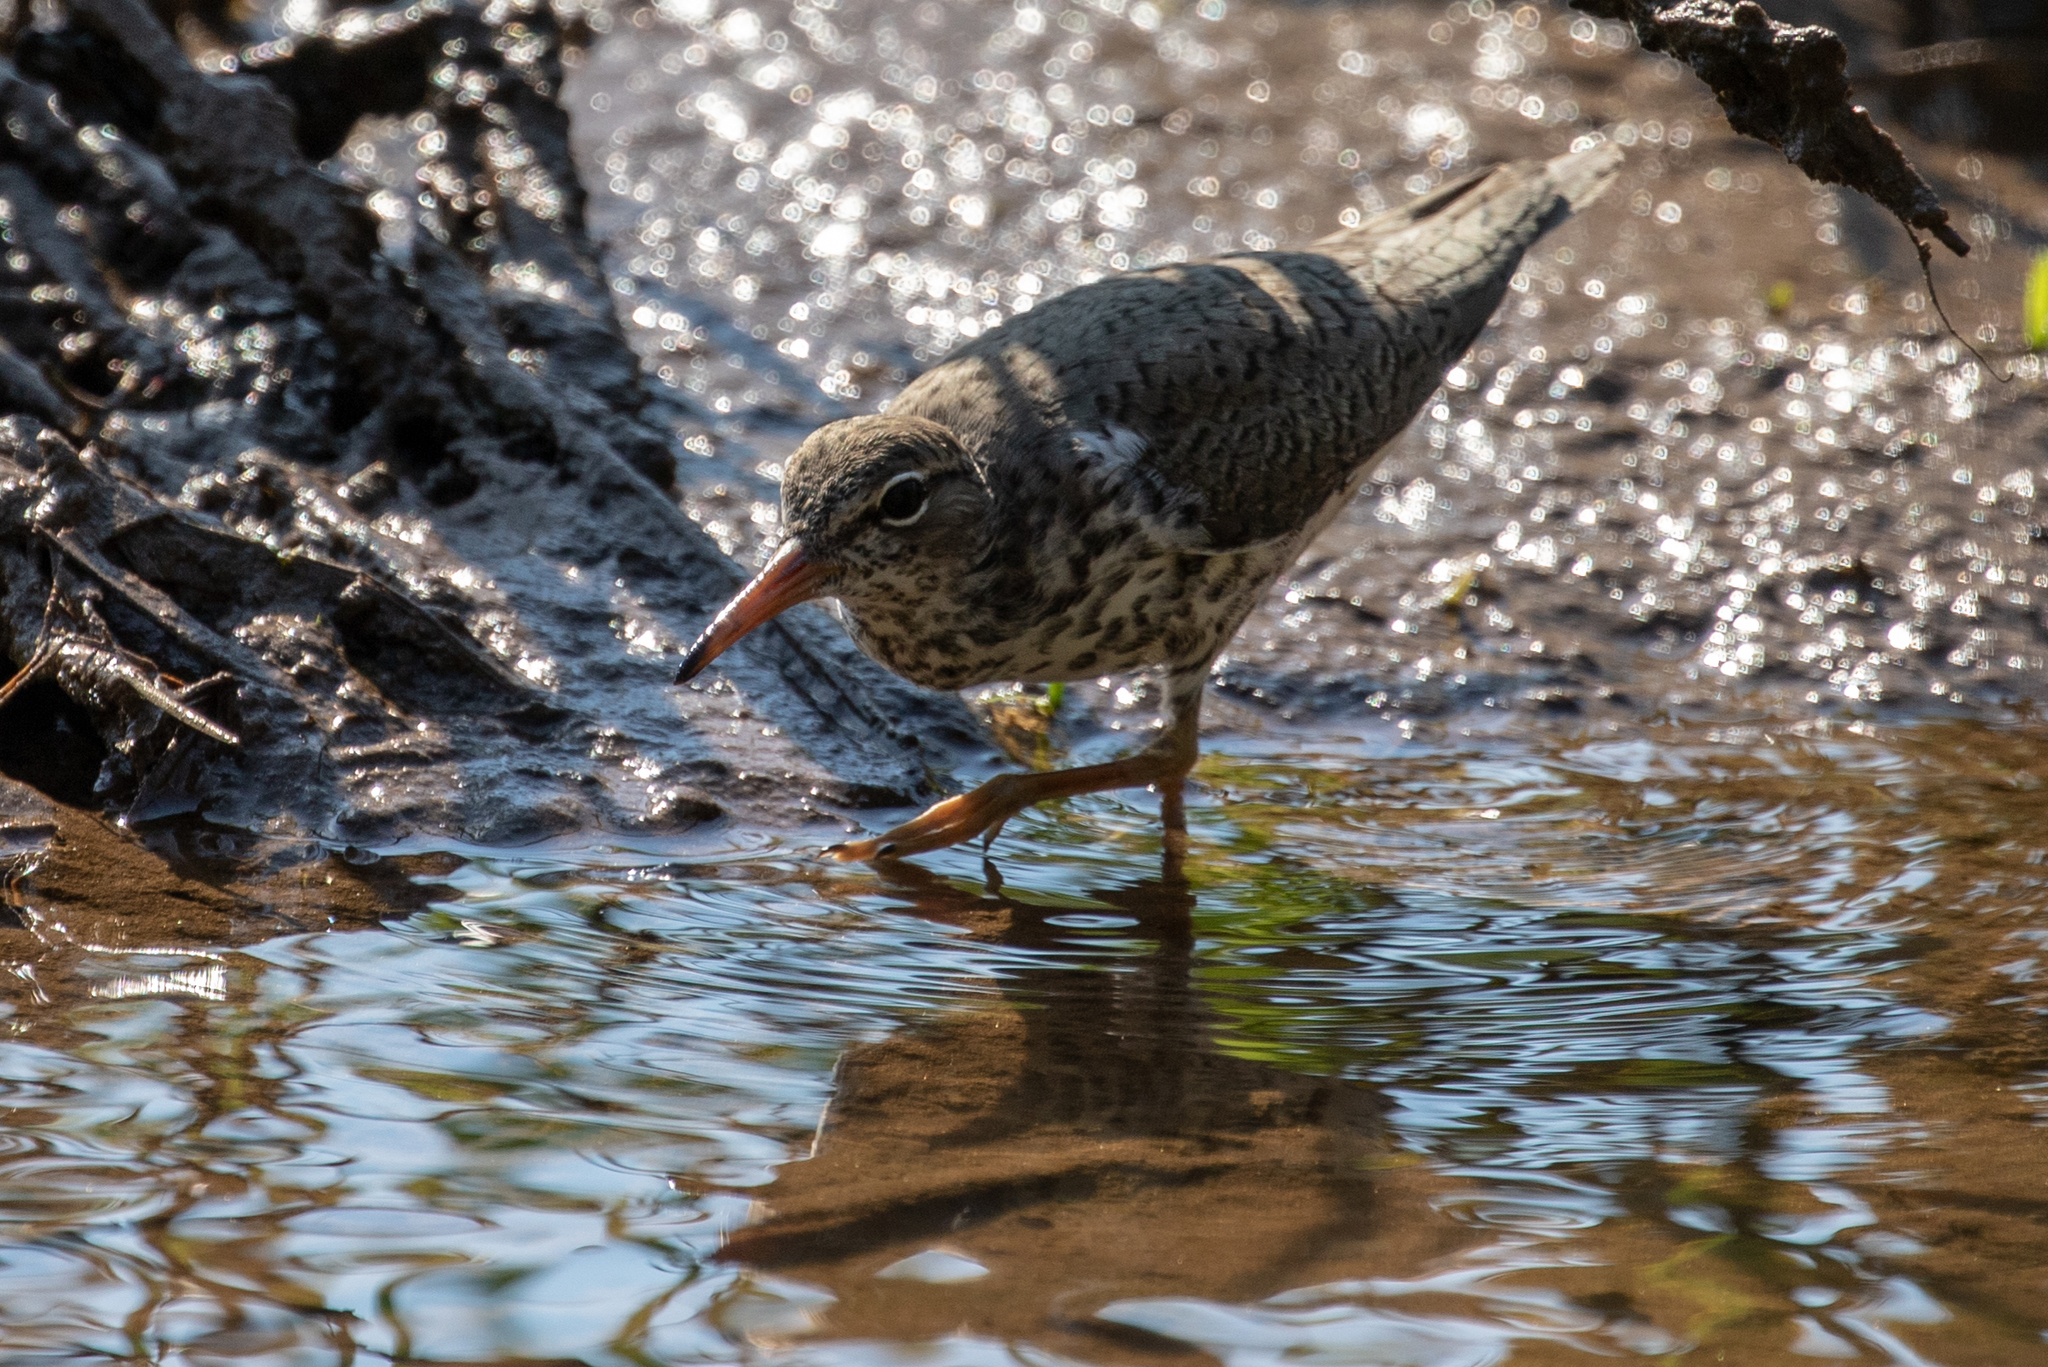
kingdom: Animalia
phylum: Chordata
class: Aves
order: Charadriiformes
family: Scolopacidae
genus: Actitis
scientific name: Actitis macularius
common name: Spotted sandpiper
